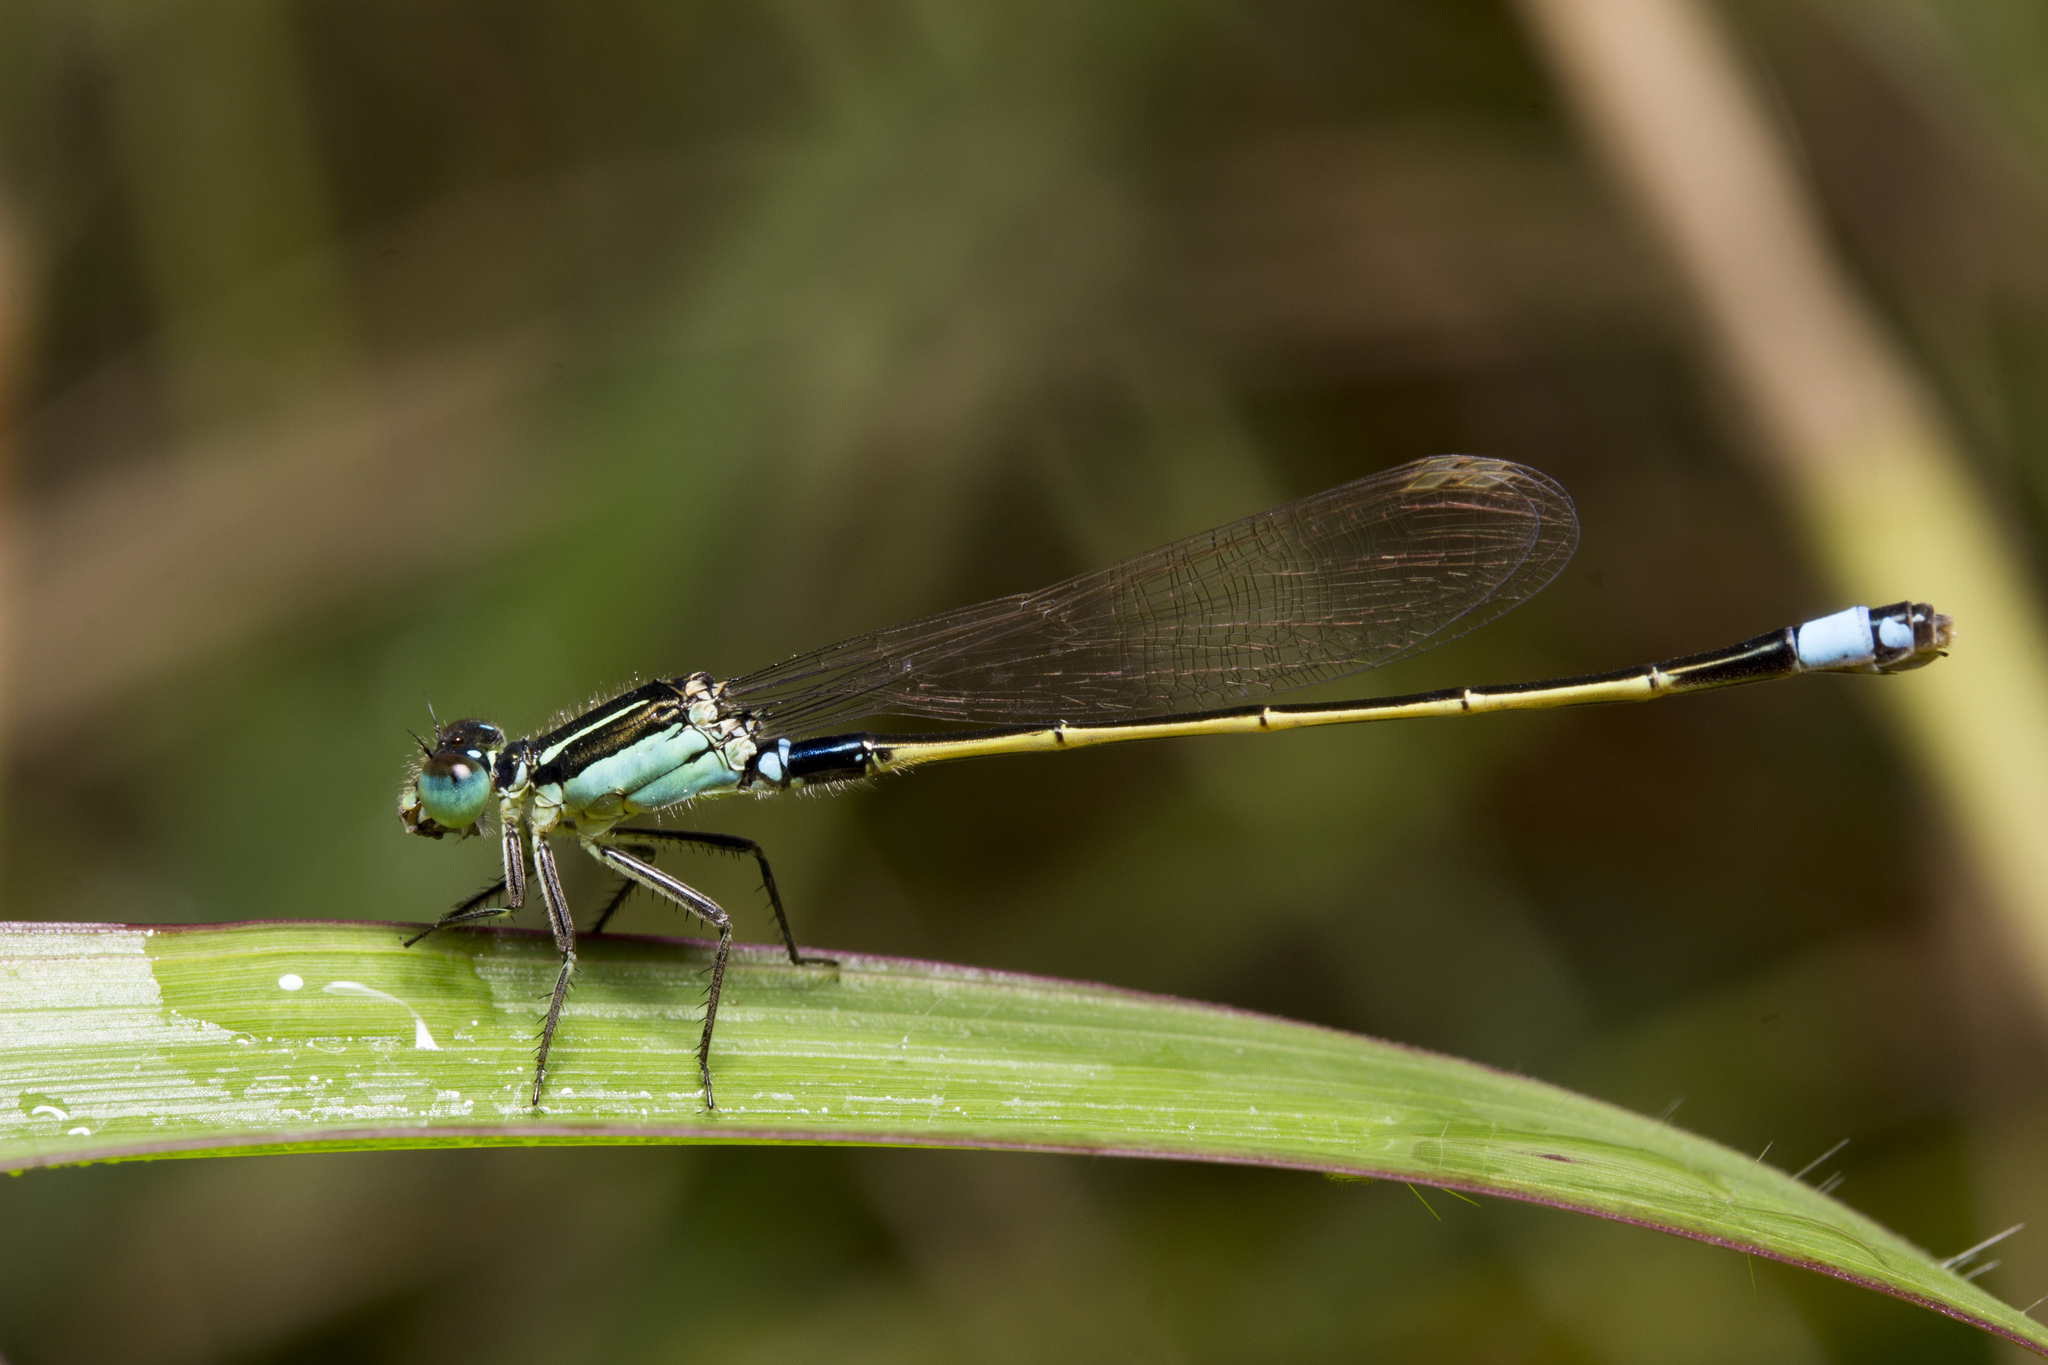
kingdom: Animalia
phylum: Arthropoda
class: Insecta
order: Odonata
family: Coenagrionidae
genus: Ischnura
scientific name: Ischnura senegalensis
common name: Tropical bluetail
